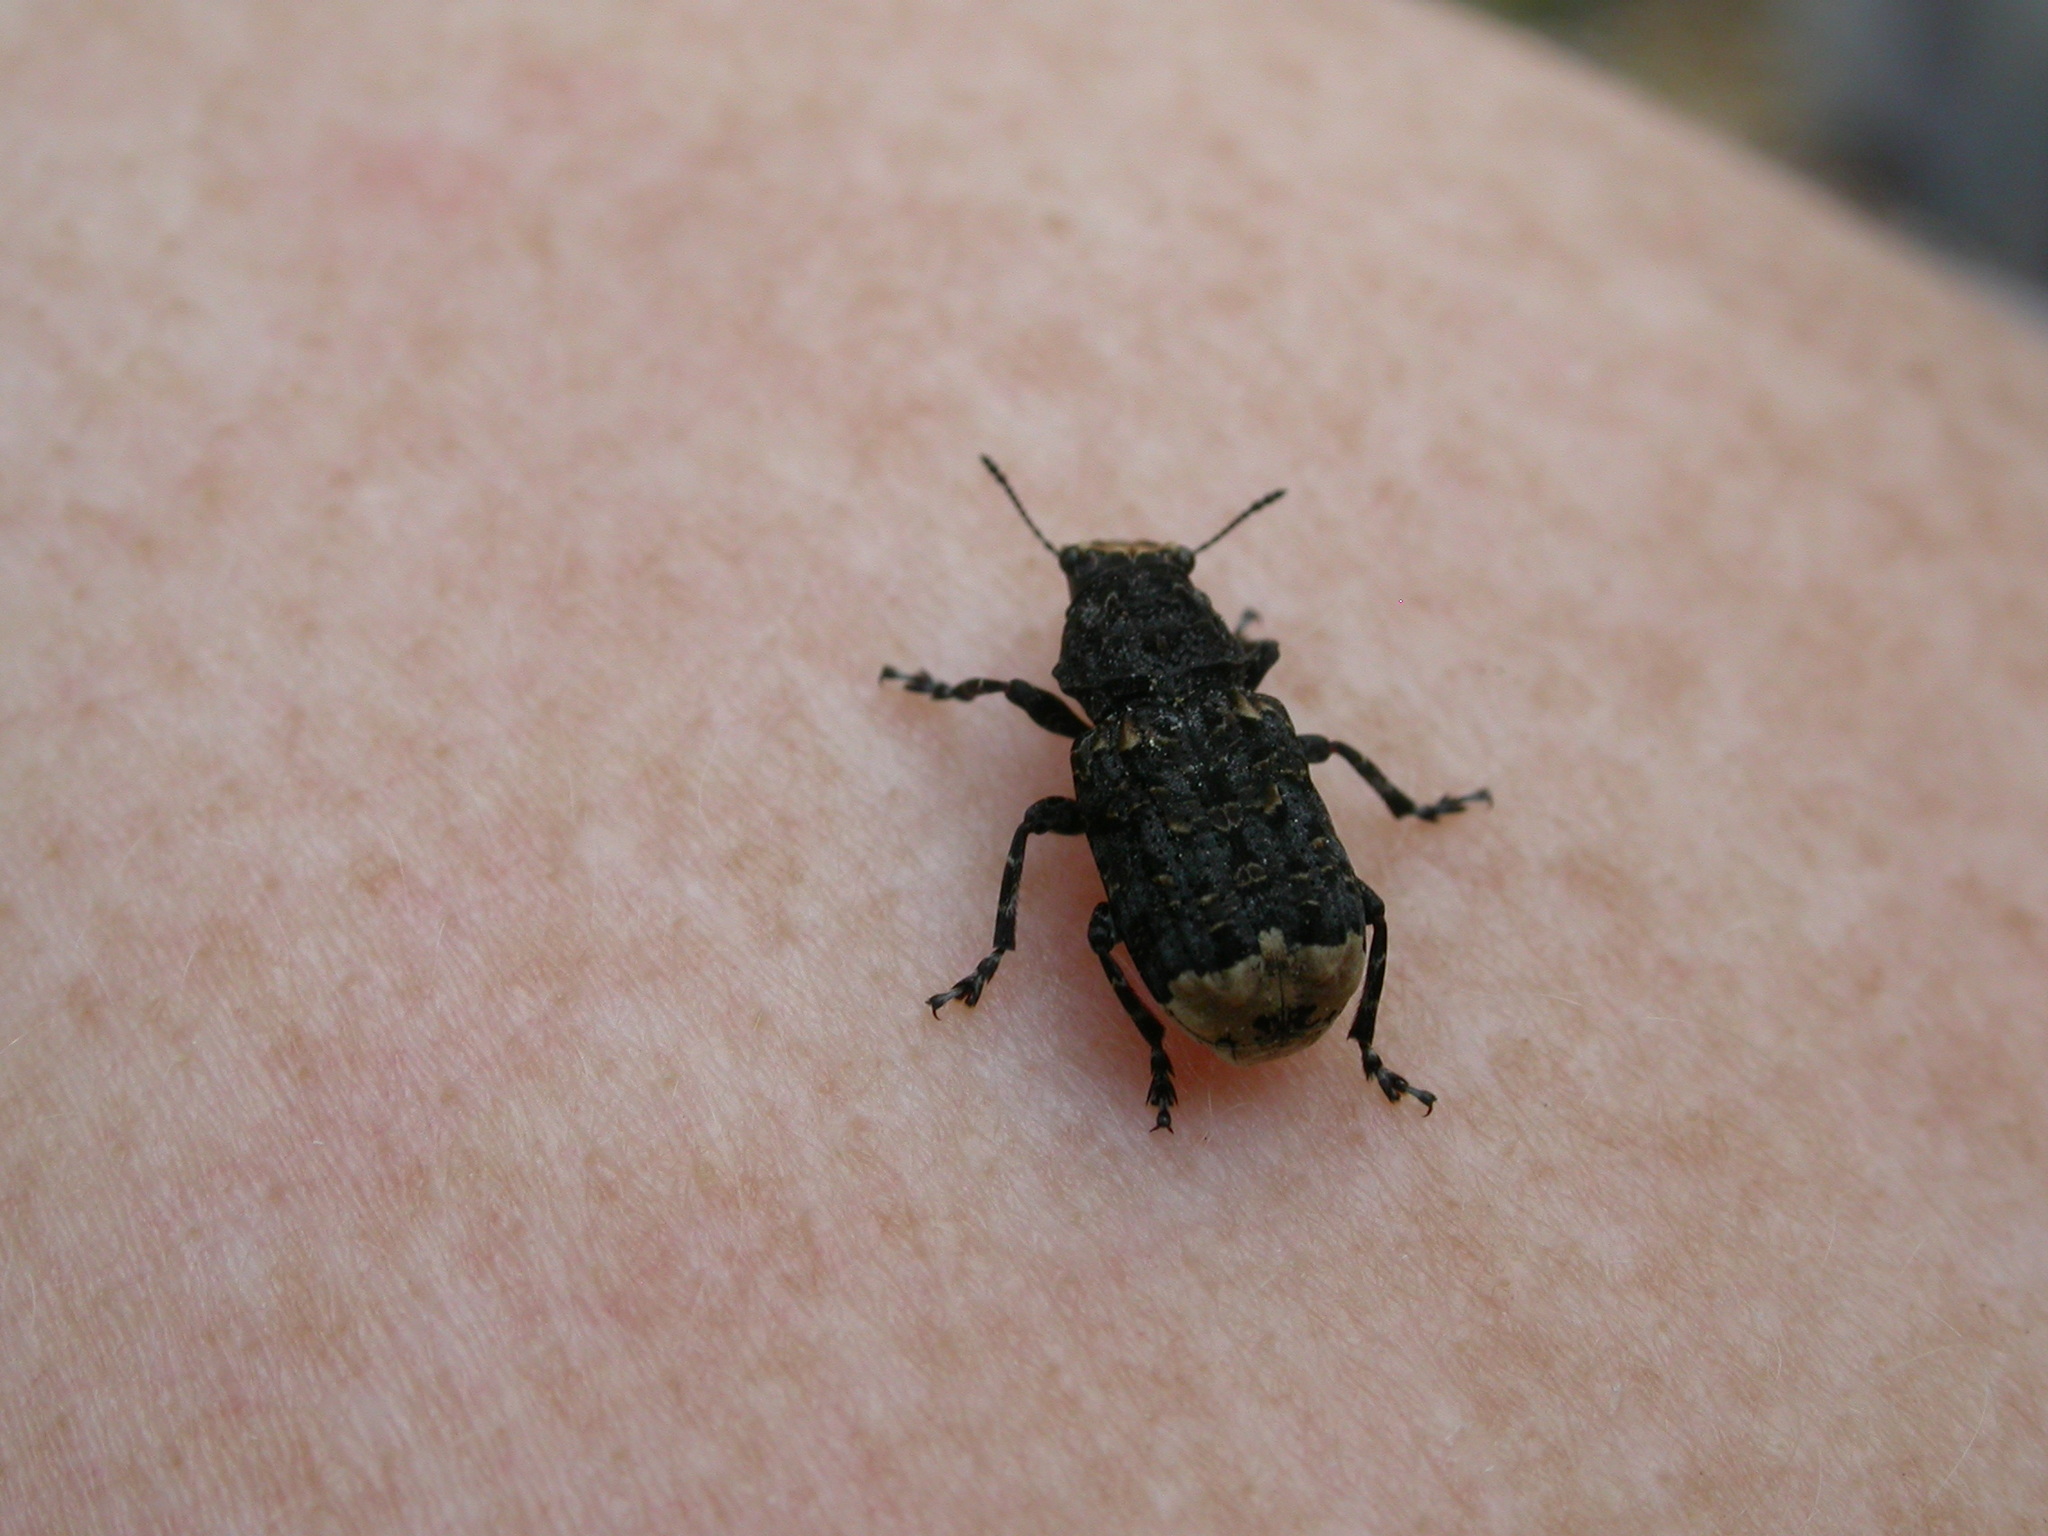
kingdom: Animalia
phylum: Arthropoda
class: Insecta
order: Coleoptera
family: Anthribidae
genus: Platyrhinus
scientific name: Platyrhinus resinosus
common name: Cramp-ball fungus weevil
